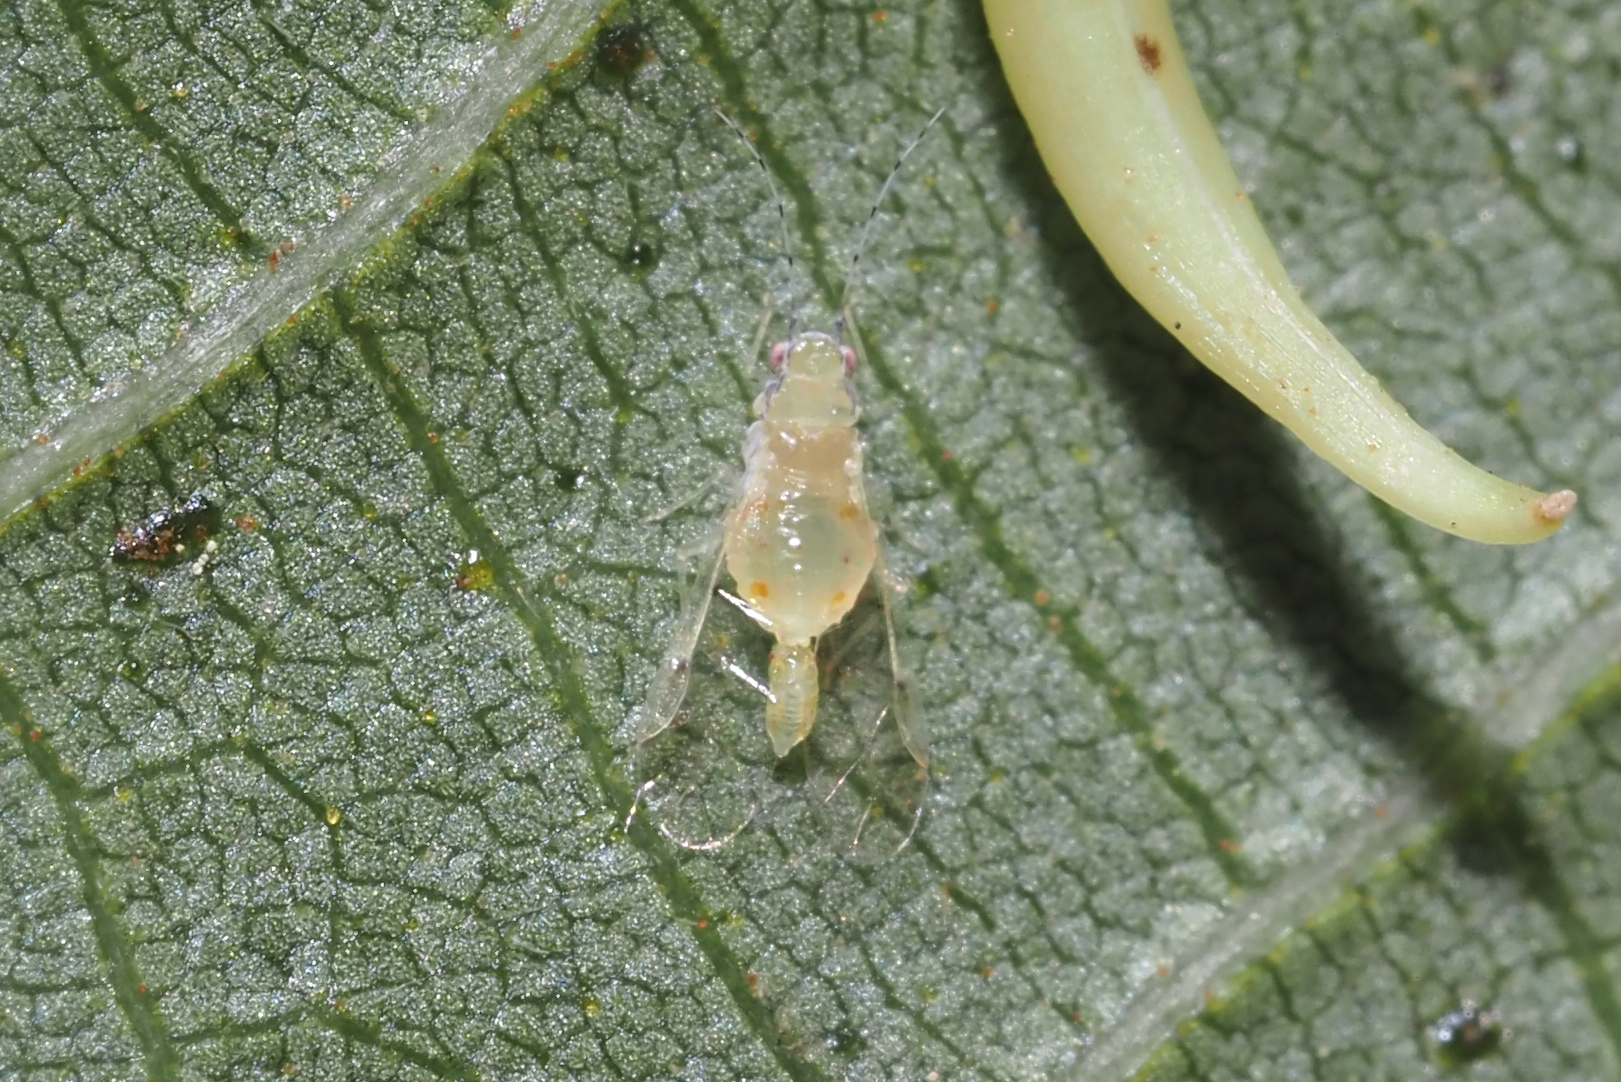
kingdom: Animalia
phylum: Arthropoda
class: Insecta
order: Hemiptera
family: Aphididae
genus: Monellia
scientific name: Monellia microsetosa
